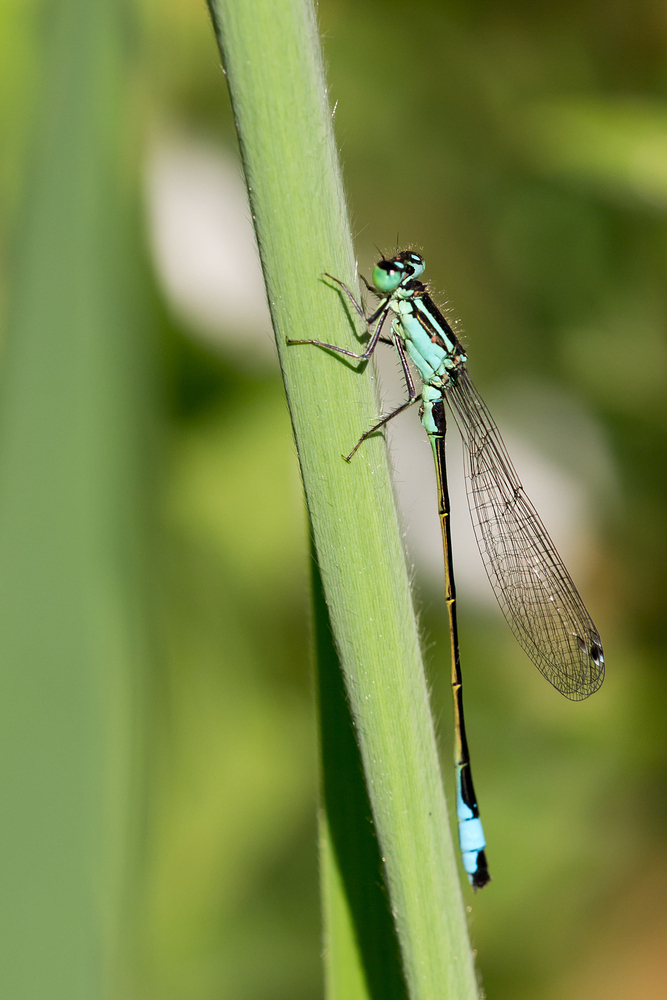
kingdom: Animalia
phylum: Arthropoda
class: Insecta
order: Odonata
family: Coenagrionidae
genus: Ischnura
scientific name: Ischnura elegans
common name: Blue-tailed damselfly
